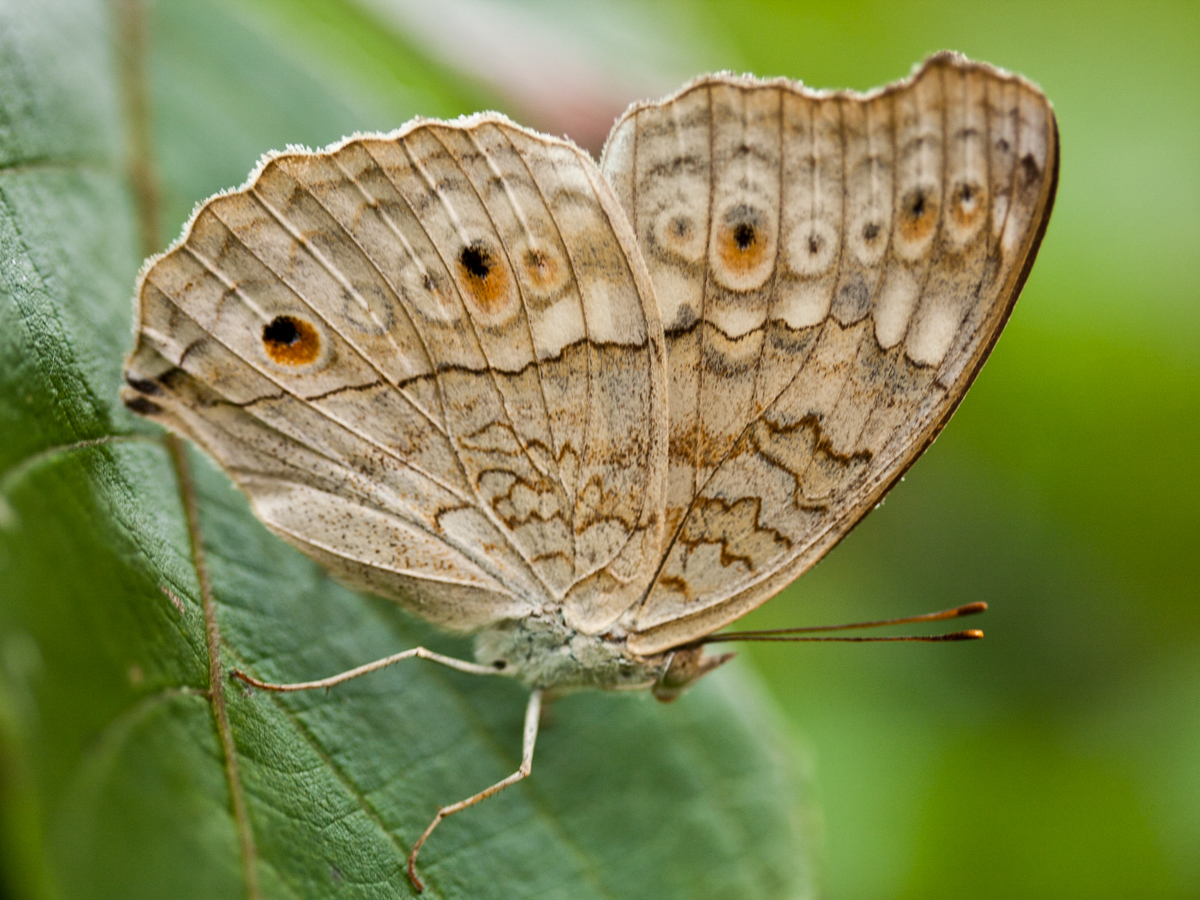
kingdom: Animalia
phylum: Arthropoda
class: Insecta
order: Lepidoptera
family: Nymphalidae
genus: Junonia
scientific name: Junonia atlites
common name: Grey pansy
